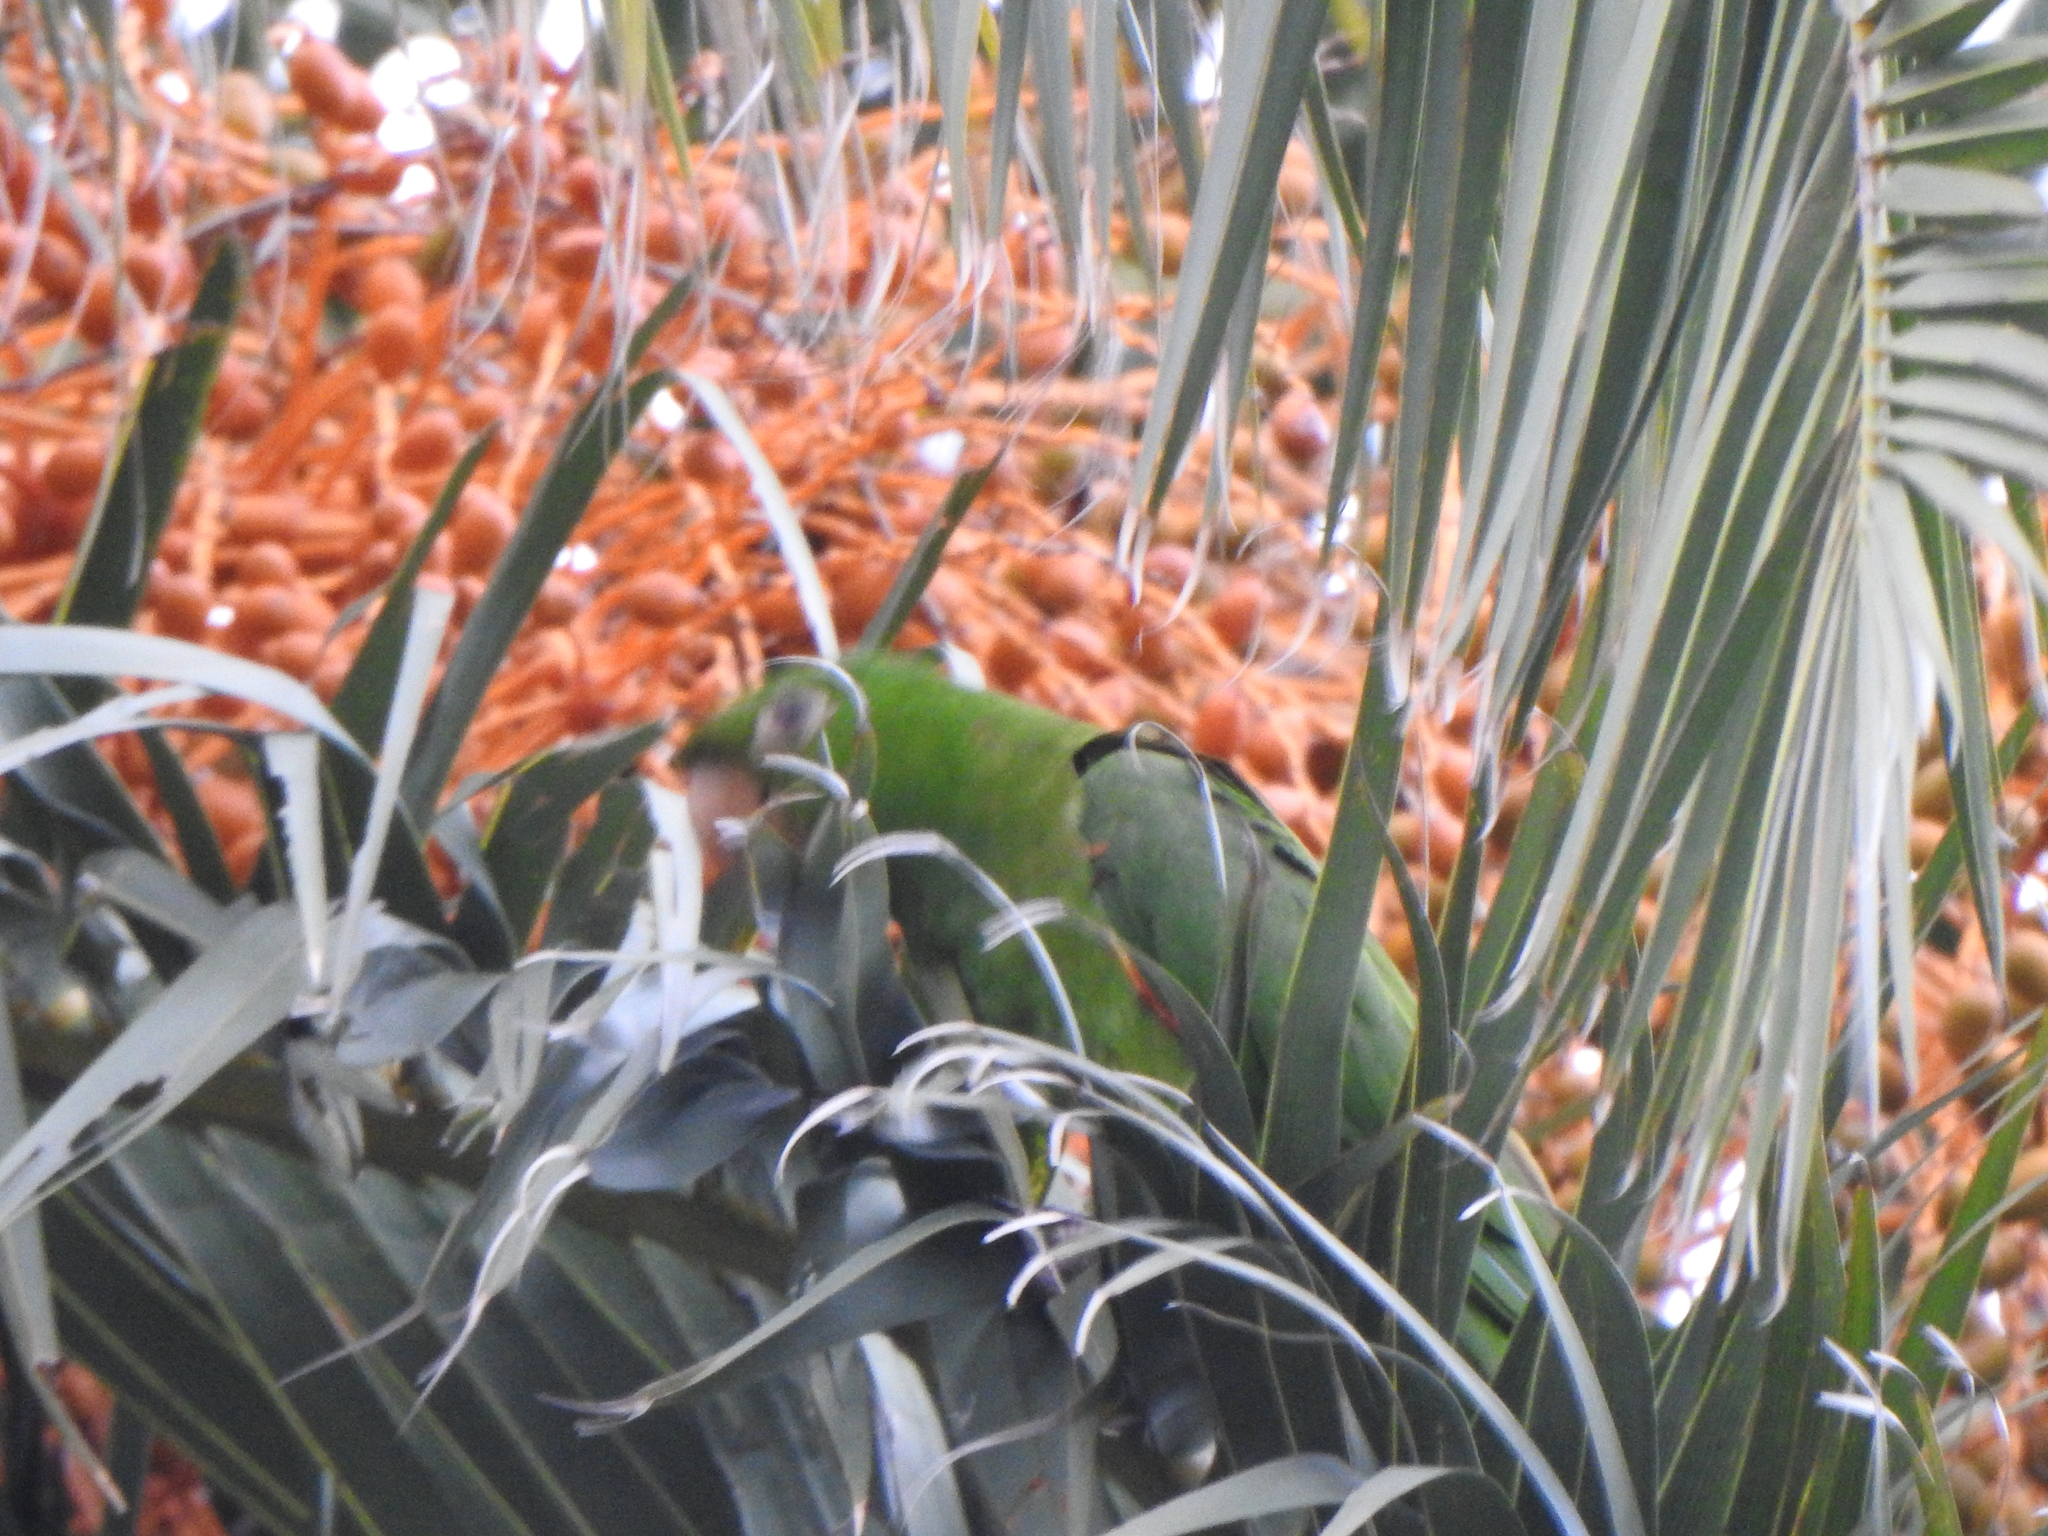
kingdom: Animalia
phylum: Chordata
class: Aves
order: Psittaciformes
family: Psittacidae
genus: Aratinga
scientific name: Aratinga leucophthalma
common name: White-eyed parakeet
